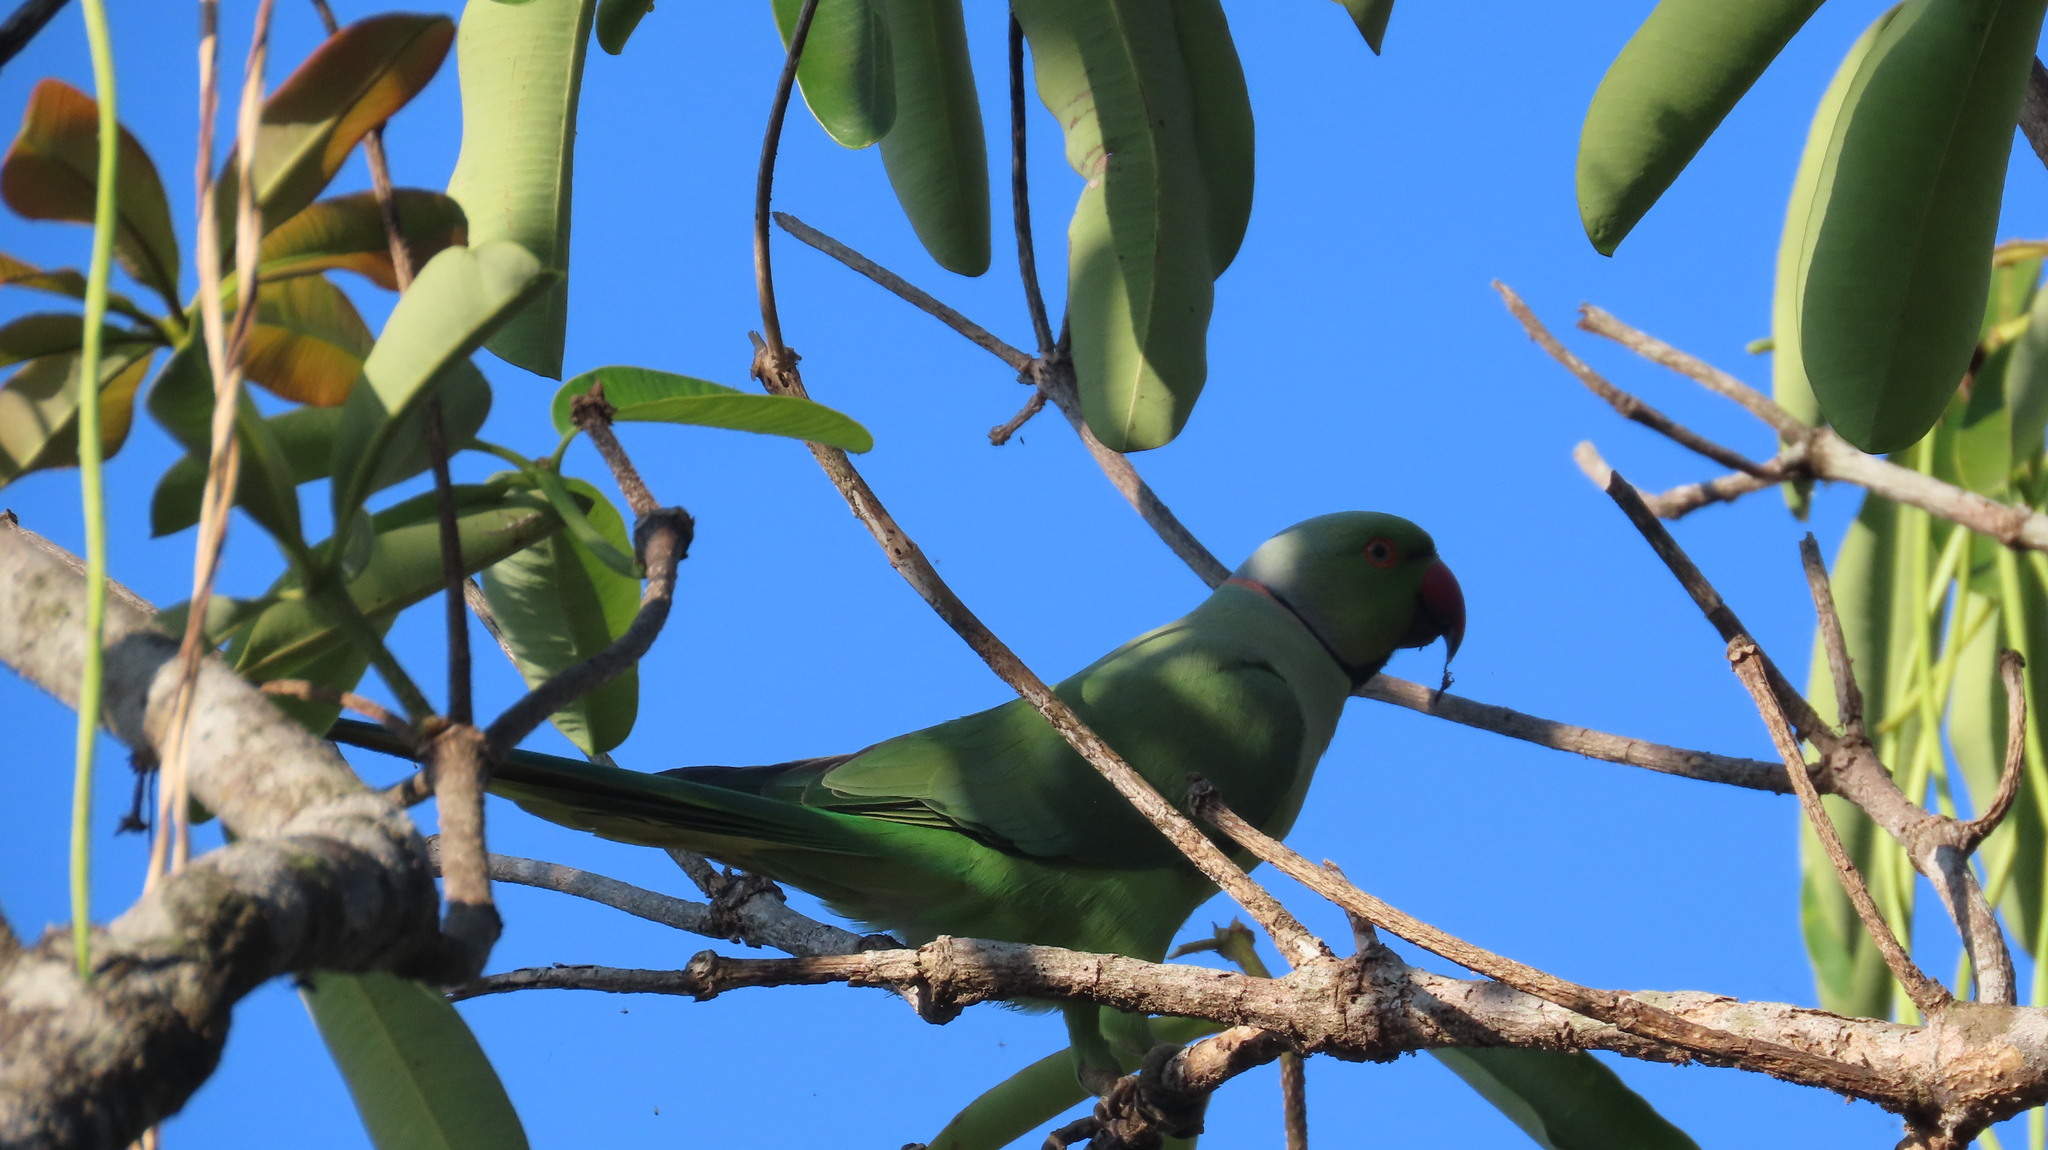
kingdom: Animalia
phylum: Chordata
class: Aves
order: Psittaciformes
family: Psittacidae
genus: Psittacula
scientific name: Psittacula krameri
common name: Rose-ringed parakeet
